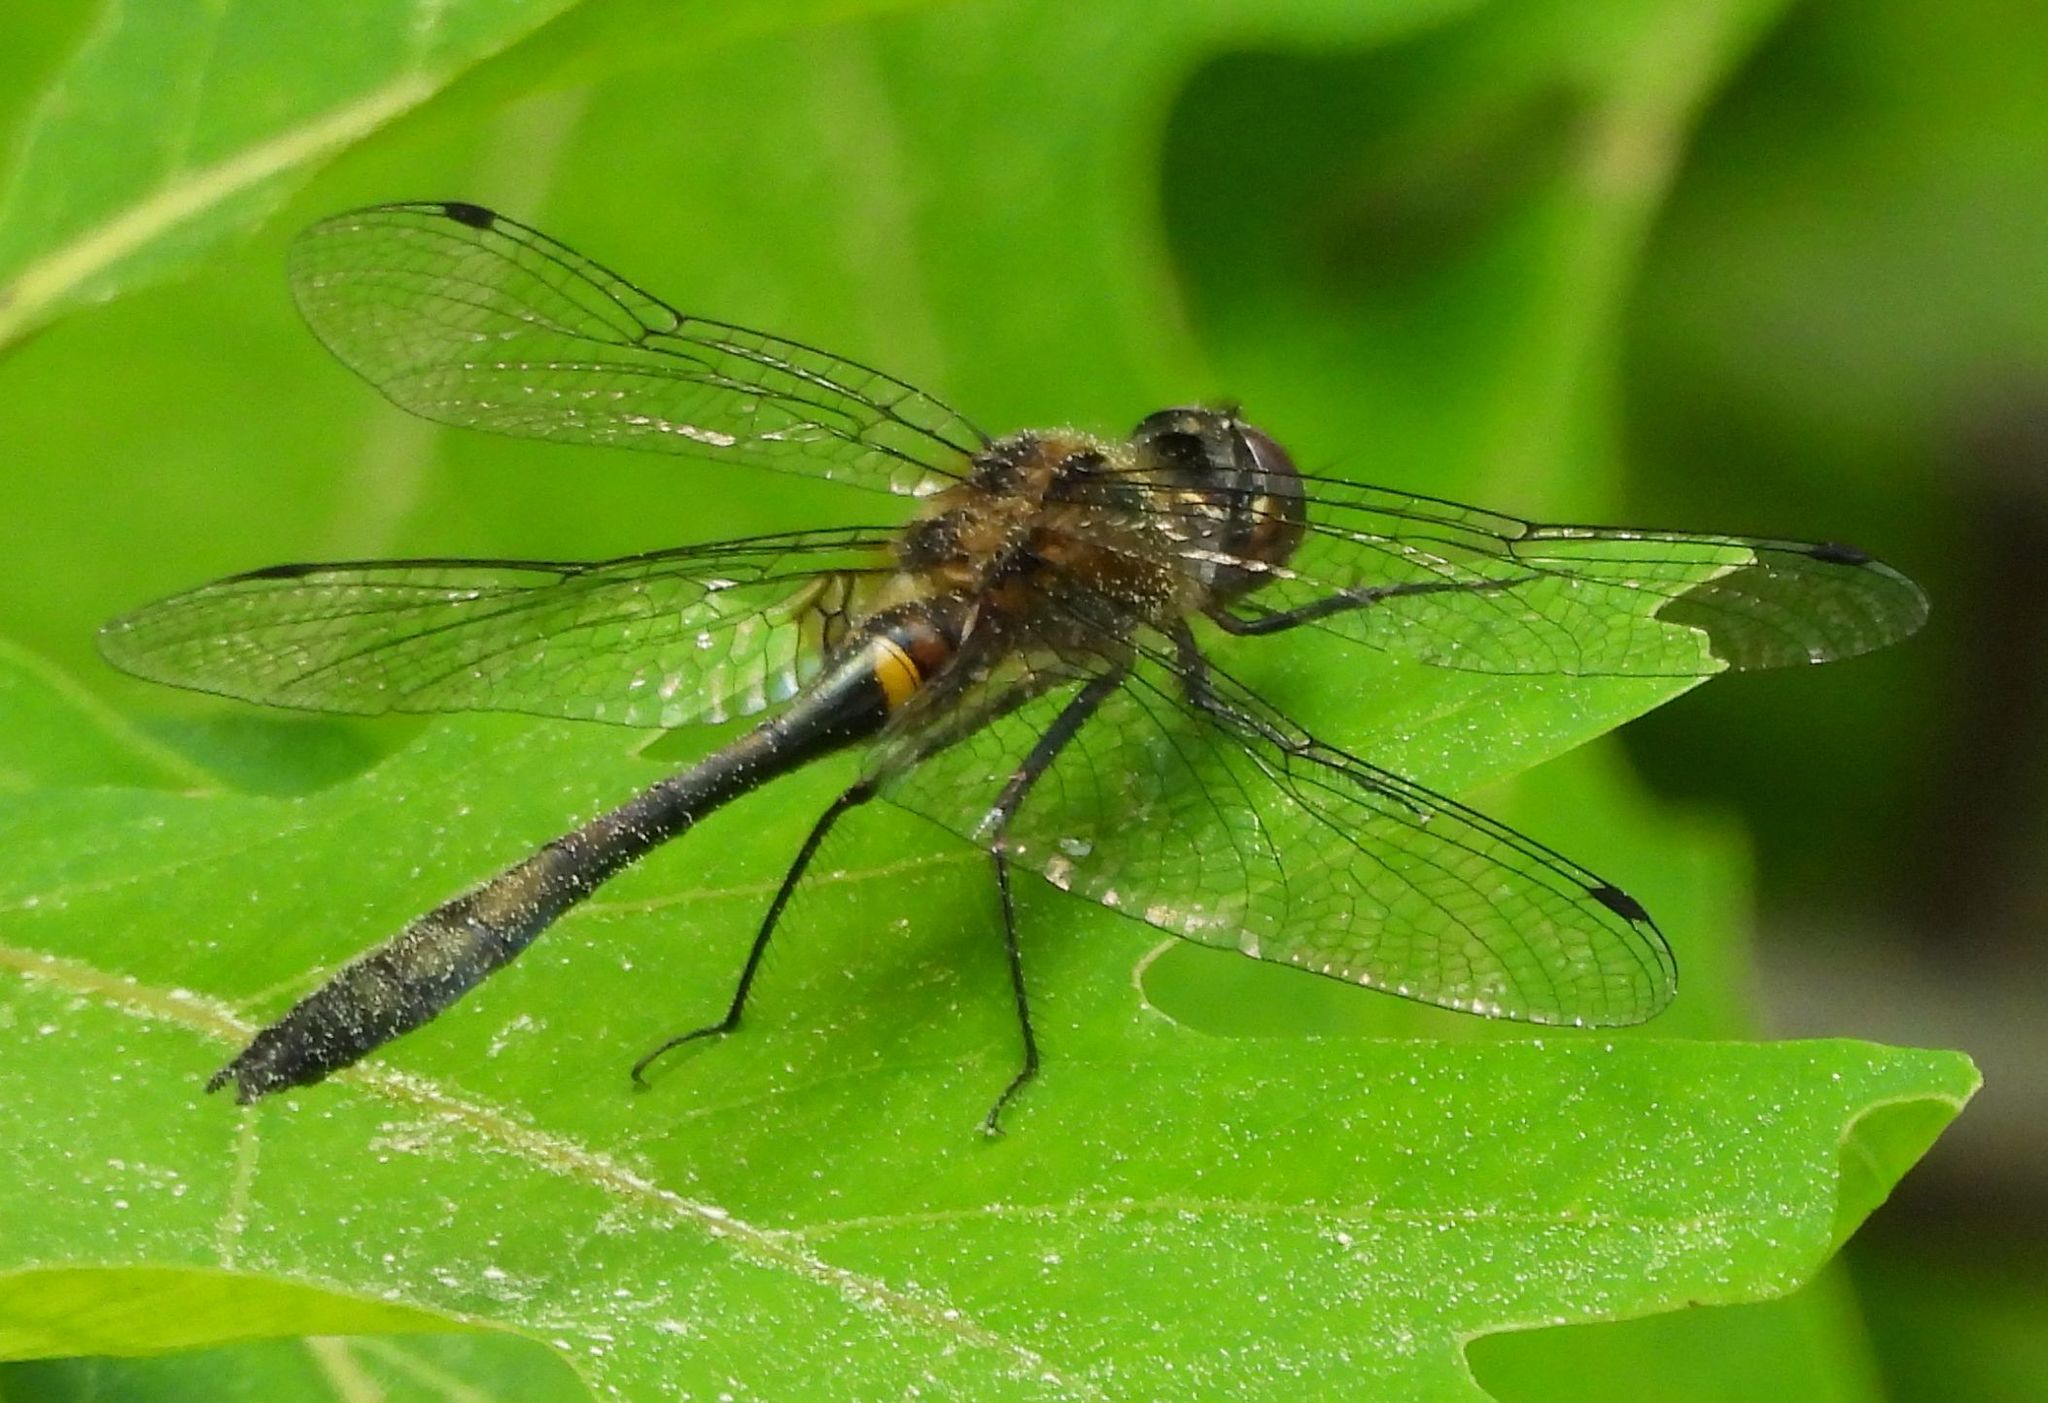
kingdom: Animalia
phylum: Arthropoda
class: Insecta
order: Odonata
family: Corduliidae
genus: Dorocordulia
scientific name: Dorocordulia libera
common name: Racket-tailed emerald
